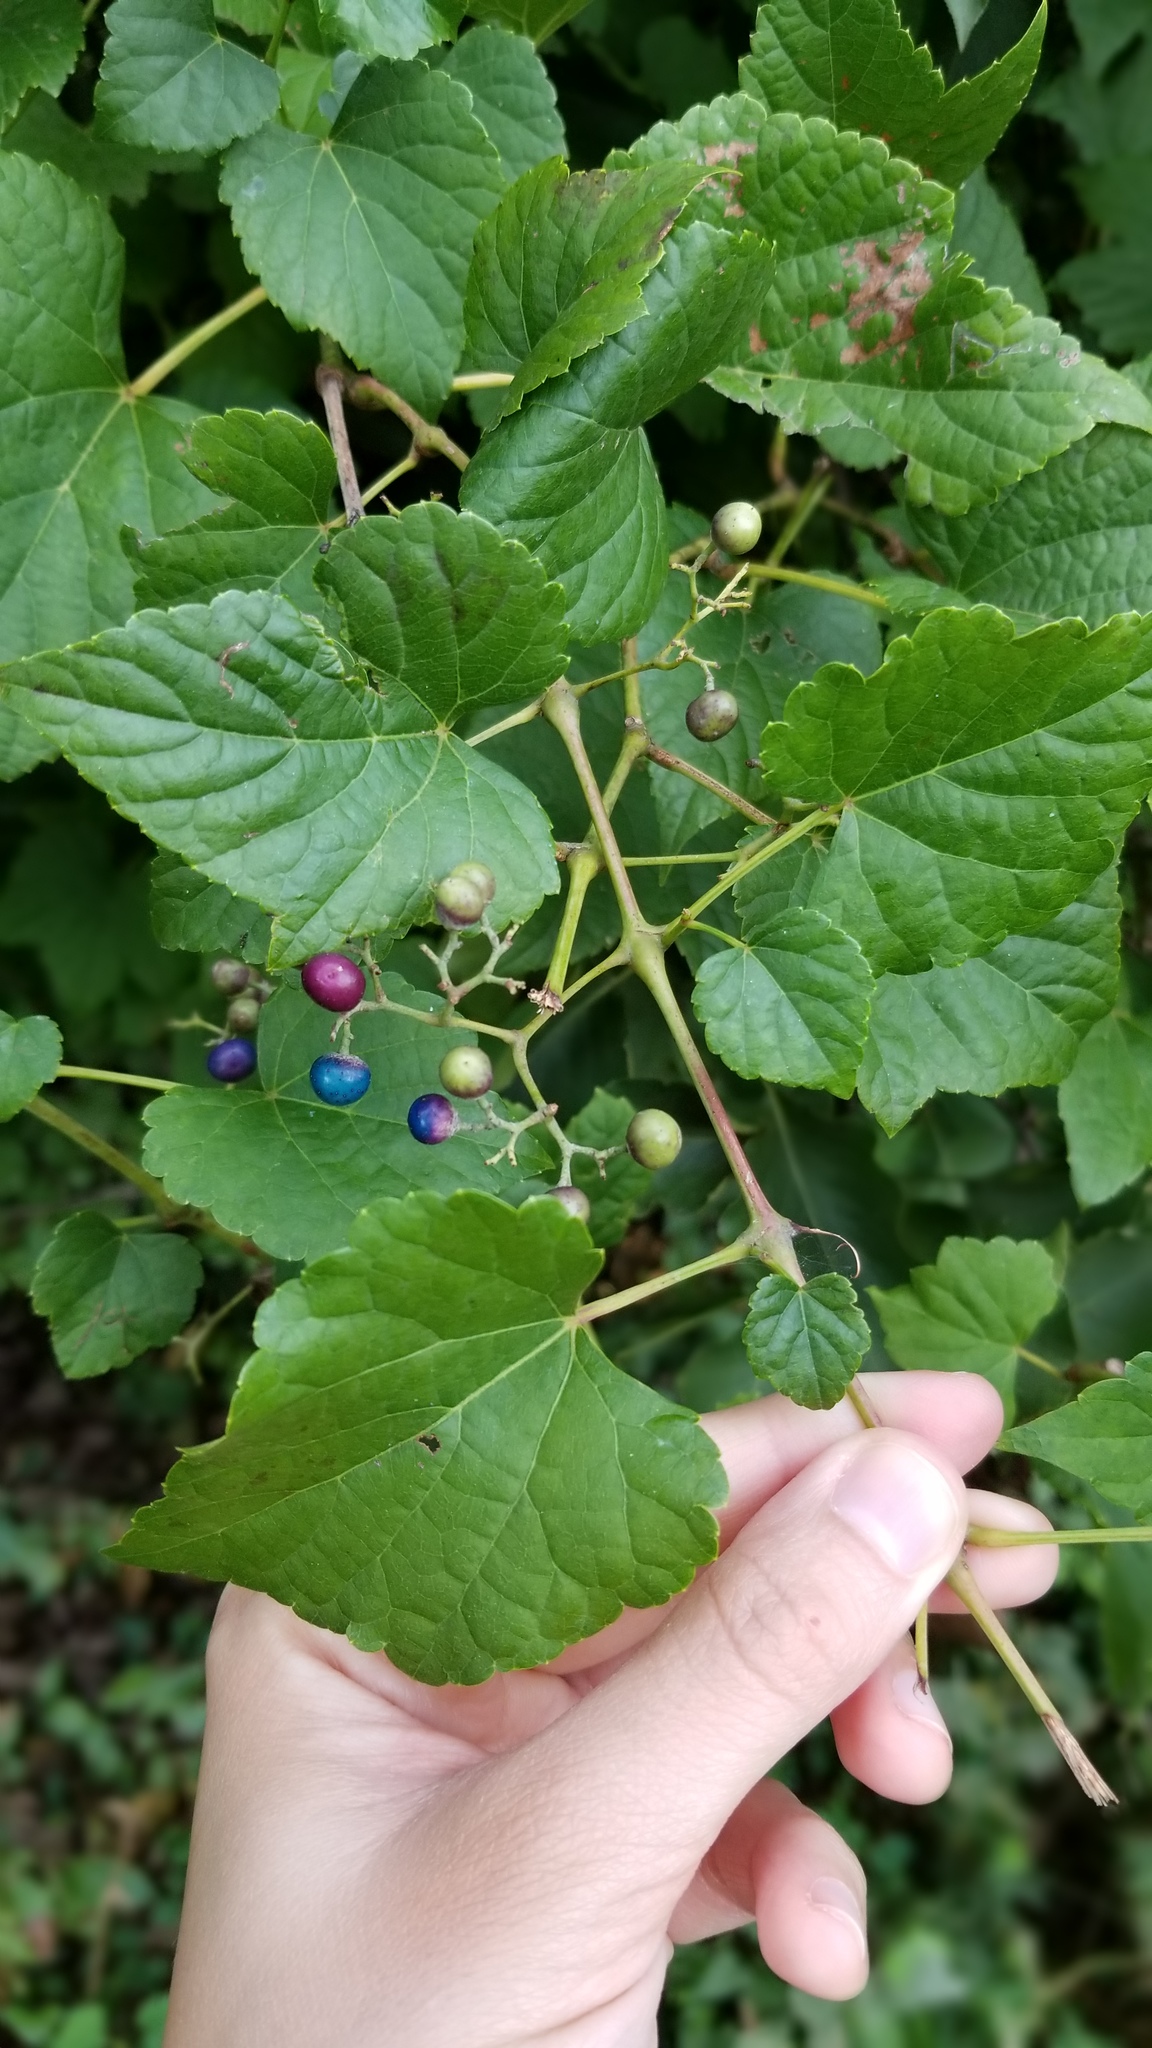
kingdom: Plantae
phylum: Tracheophyta
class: Magnoliopsida
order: Vitales
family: Vitaceae
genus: Ampelopsis
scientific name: Ampelopsis glandulosa
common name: Amur peppervine
